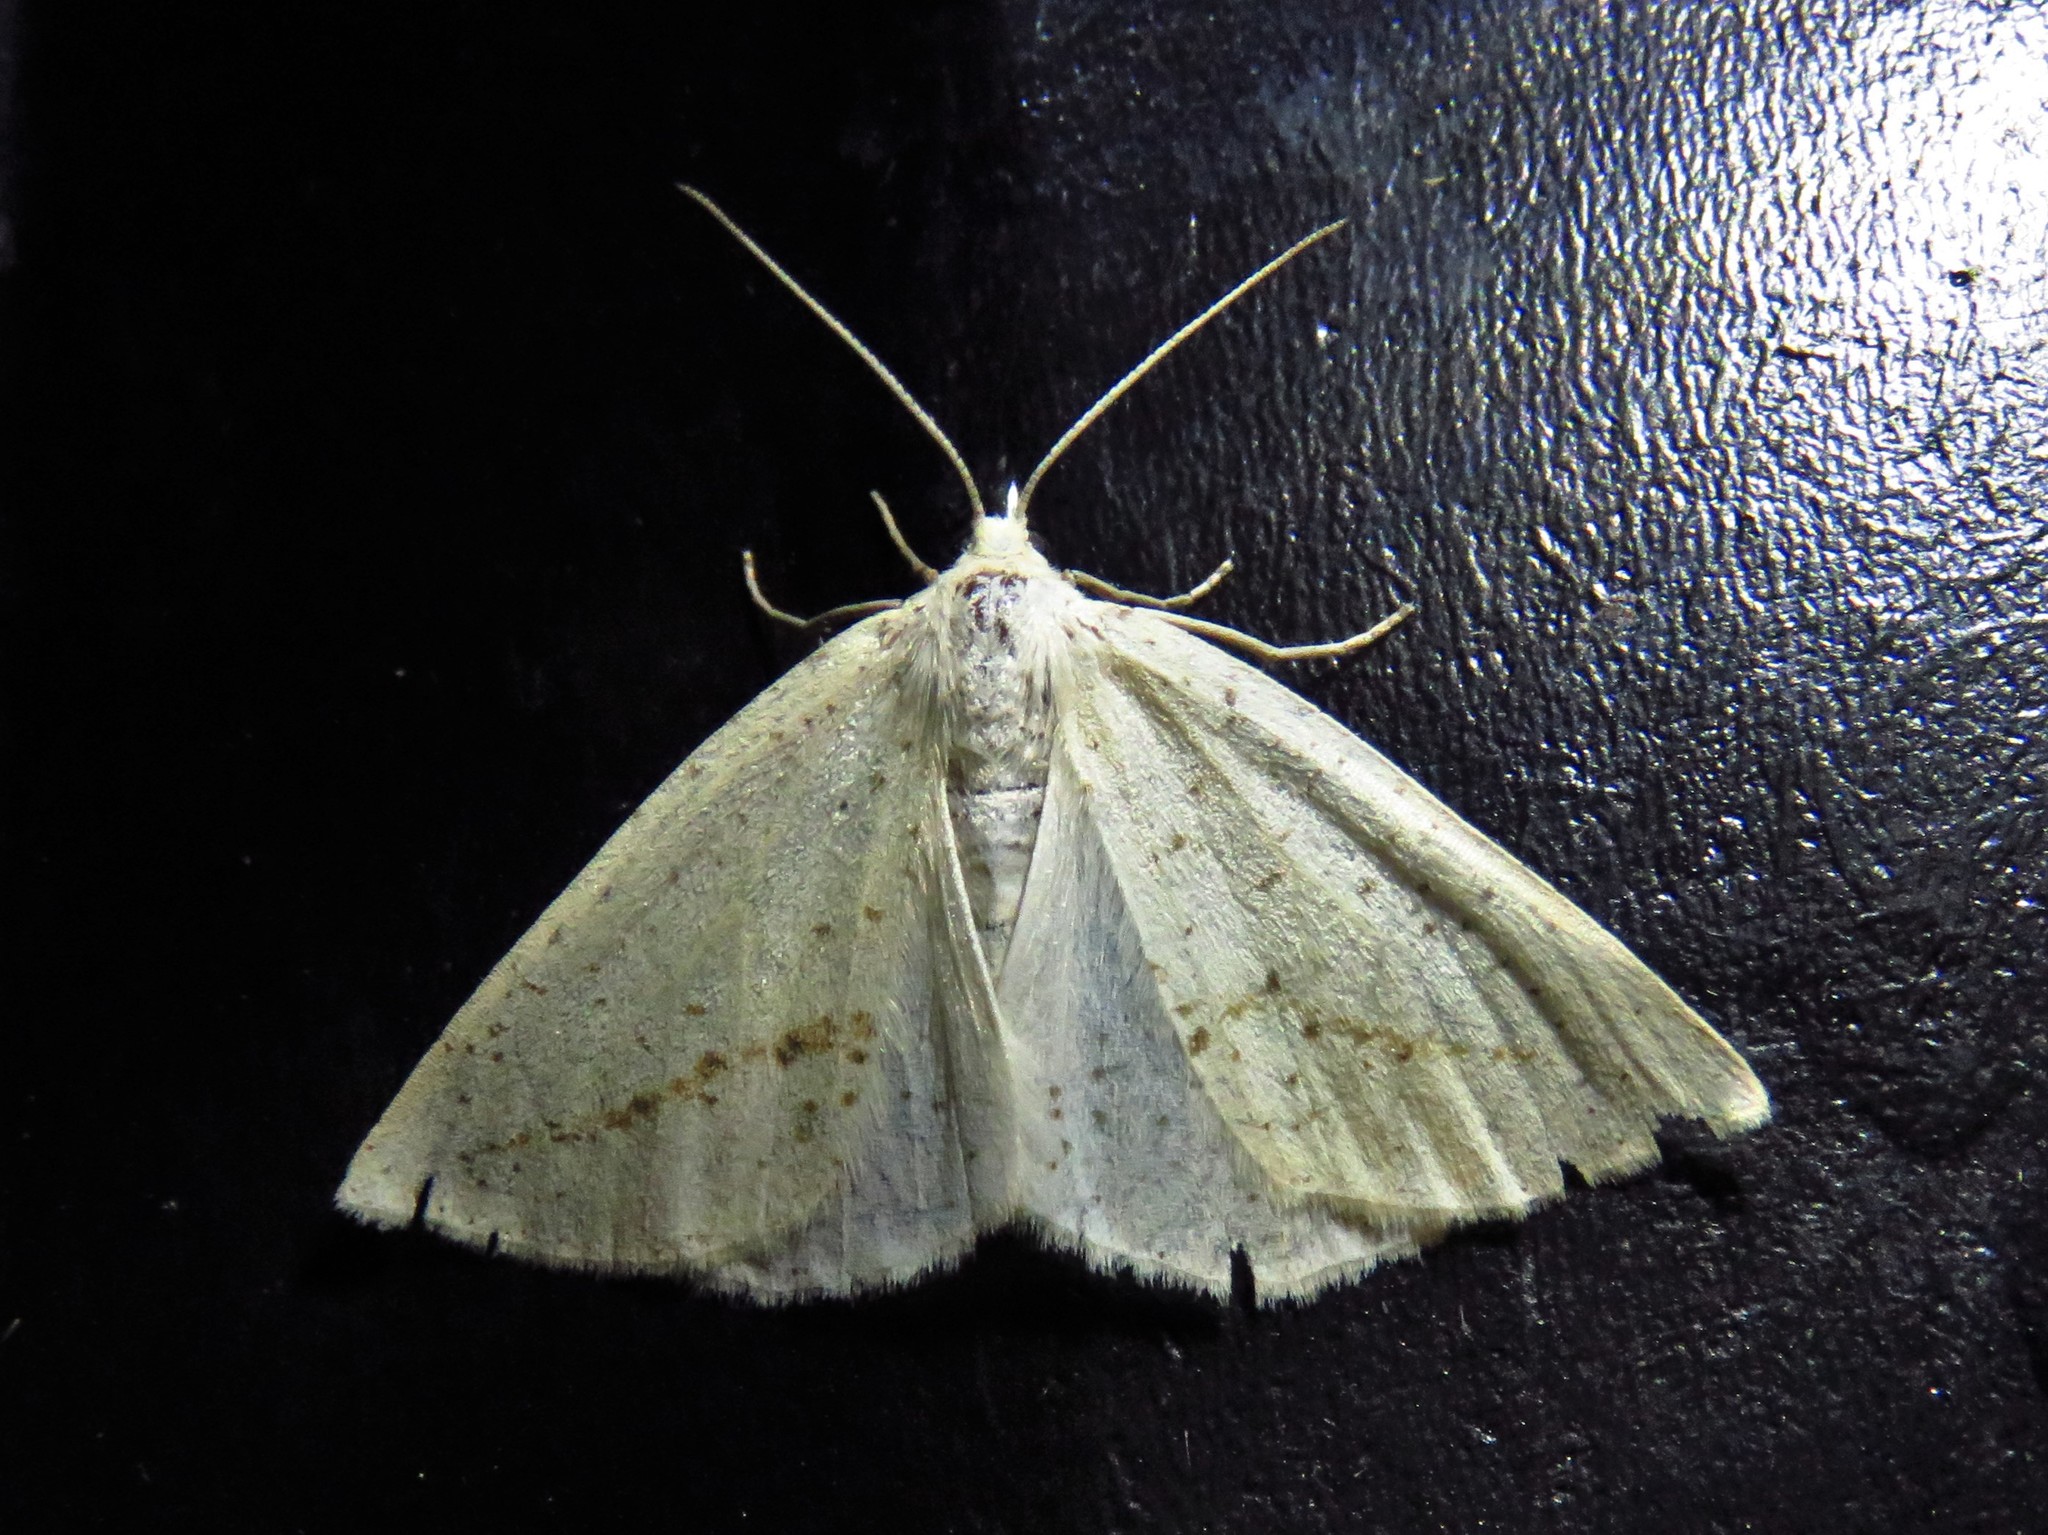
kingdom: Animalia
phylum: Arthropoda
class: Insecta
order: Lepidoptera
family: Geometridae
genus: Lychnosea
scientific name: Lychnosea intermicata
